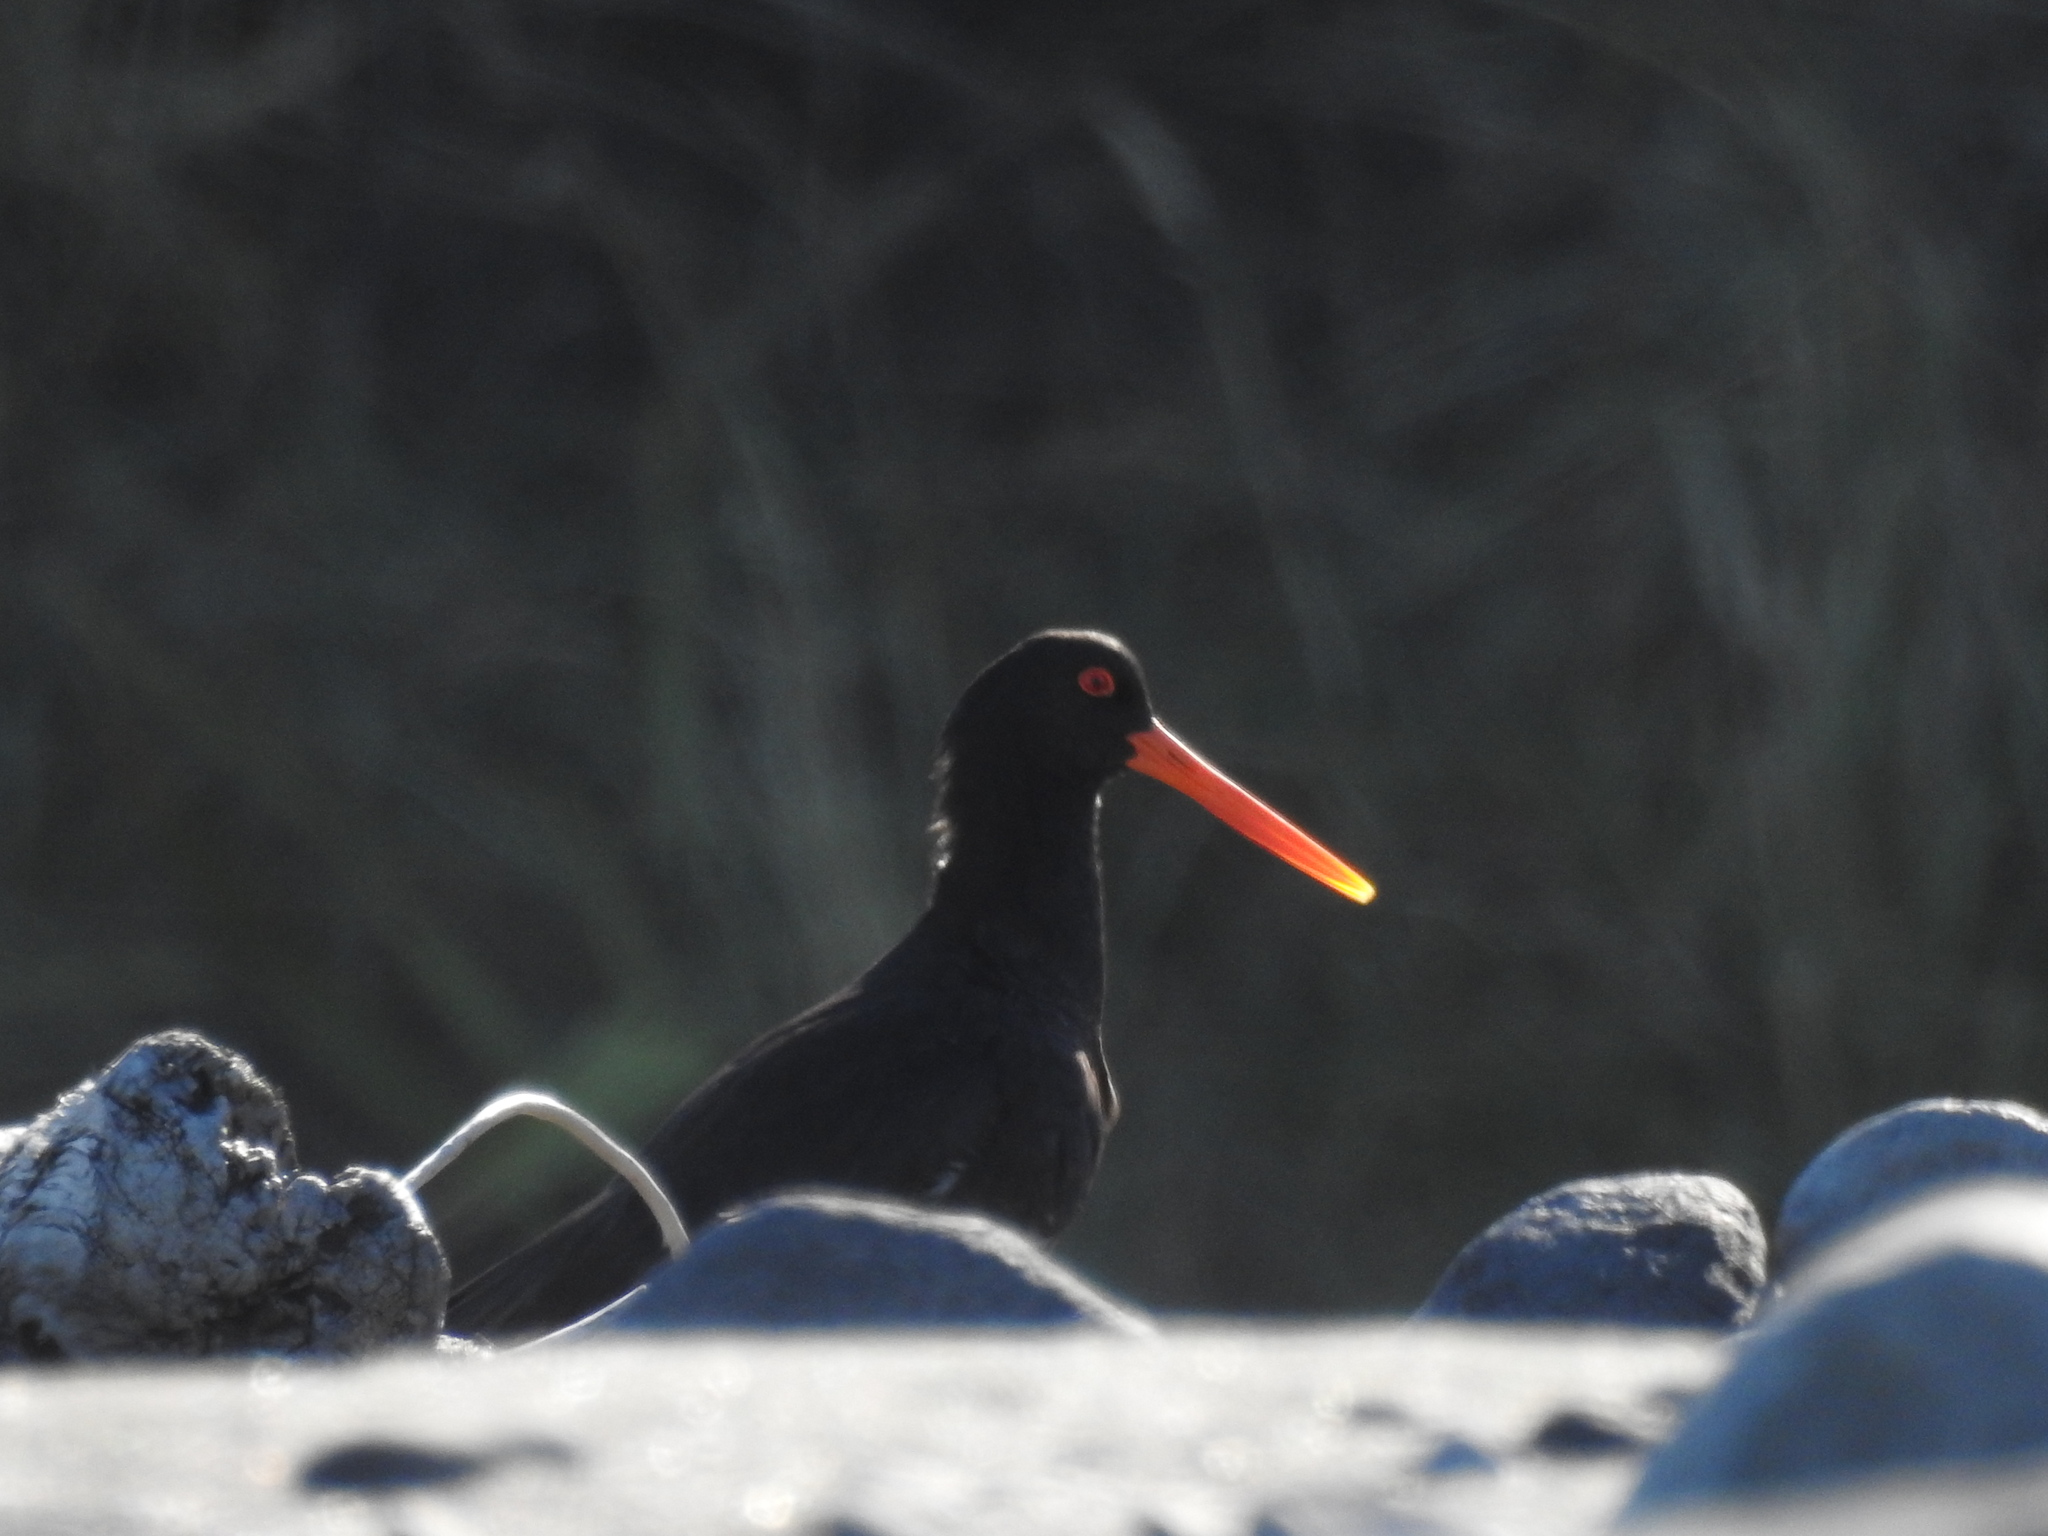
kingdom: Animalia
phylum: Chordata
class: Aves
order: Charadriiformes
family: Haematopodidae
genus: Haematopus
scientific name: Haematopus unicolor
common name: Variable oystercatcher
